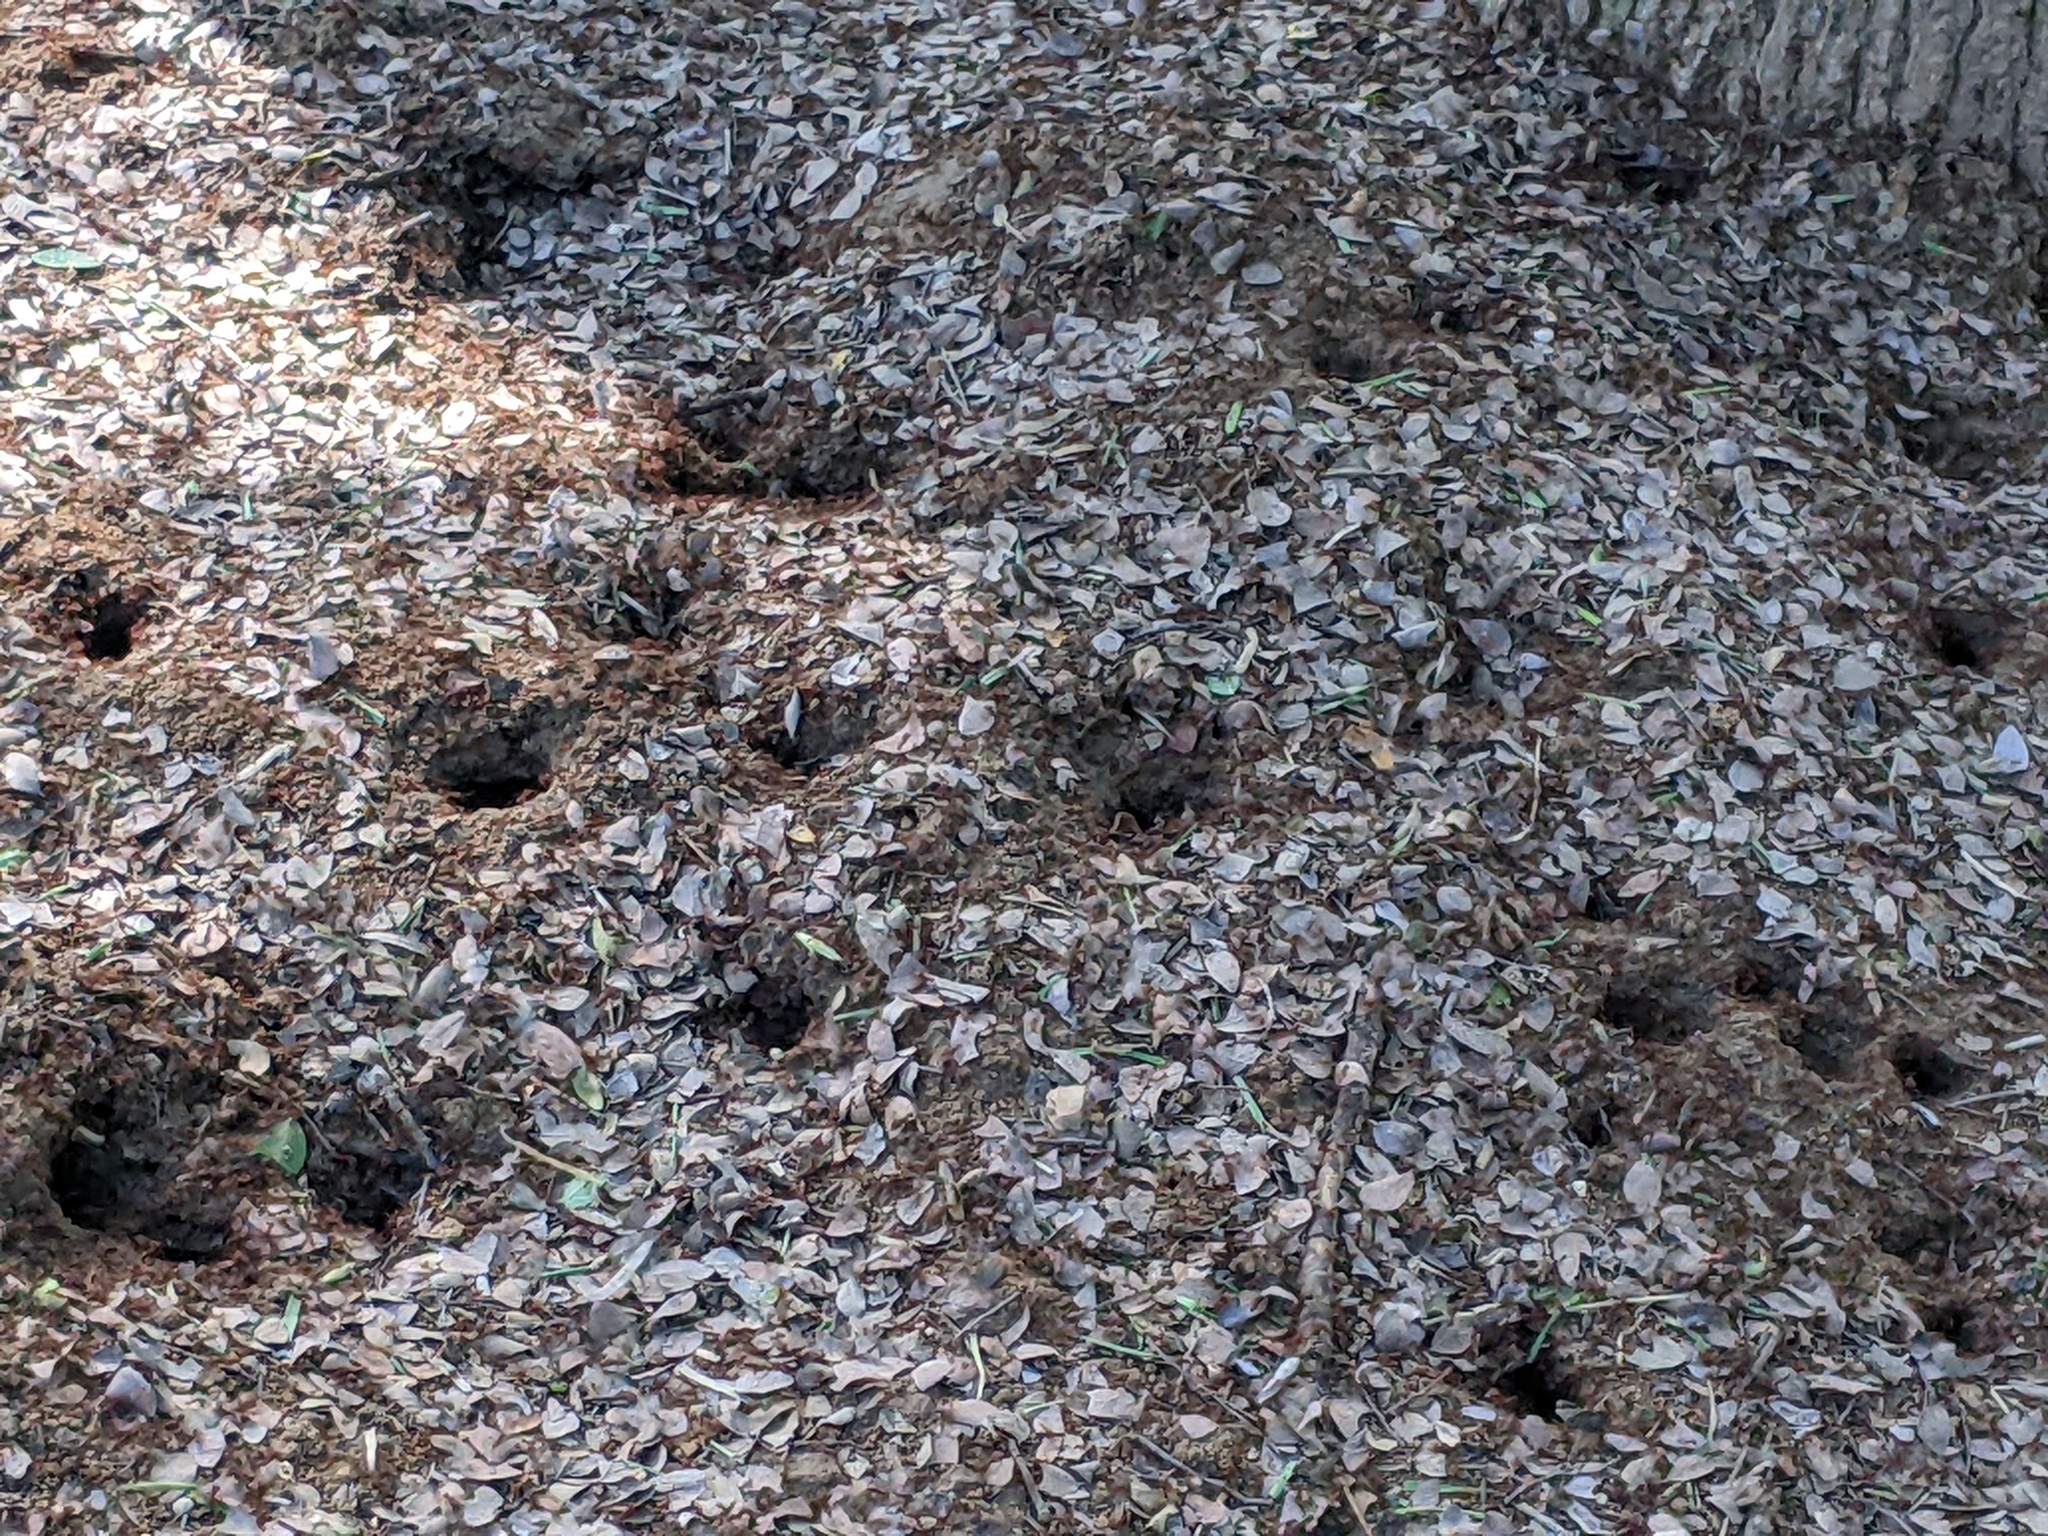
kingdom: Animalia
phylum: Arthropoda
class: Insecta
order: Hymenoptera
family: Formicidae
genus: Atta
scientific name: Atta texana
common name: Texas leafcutting ant
